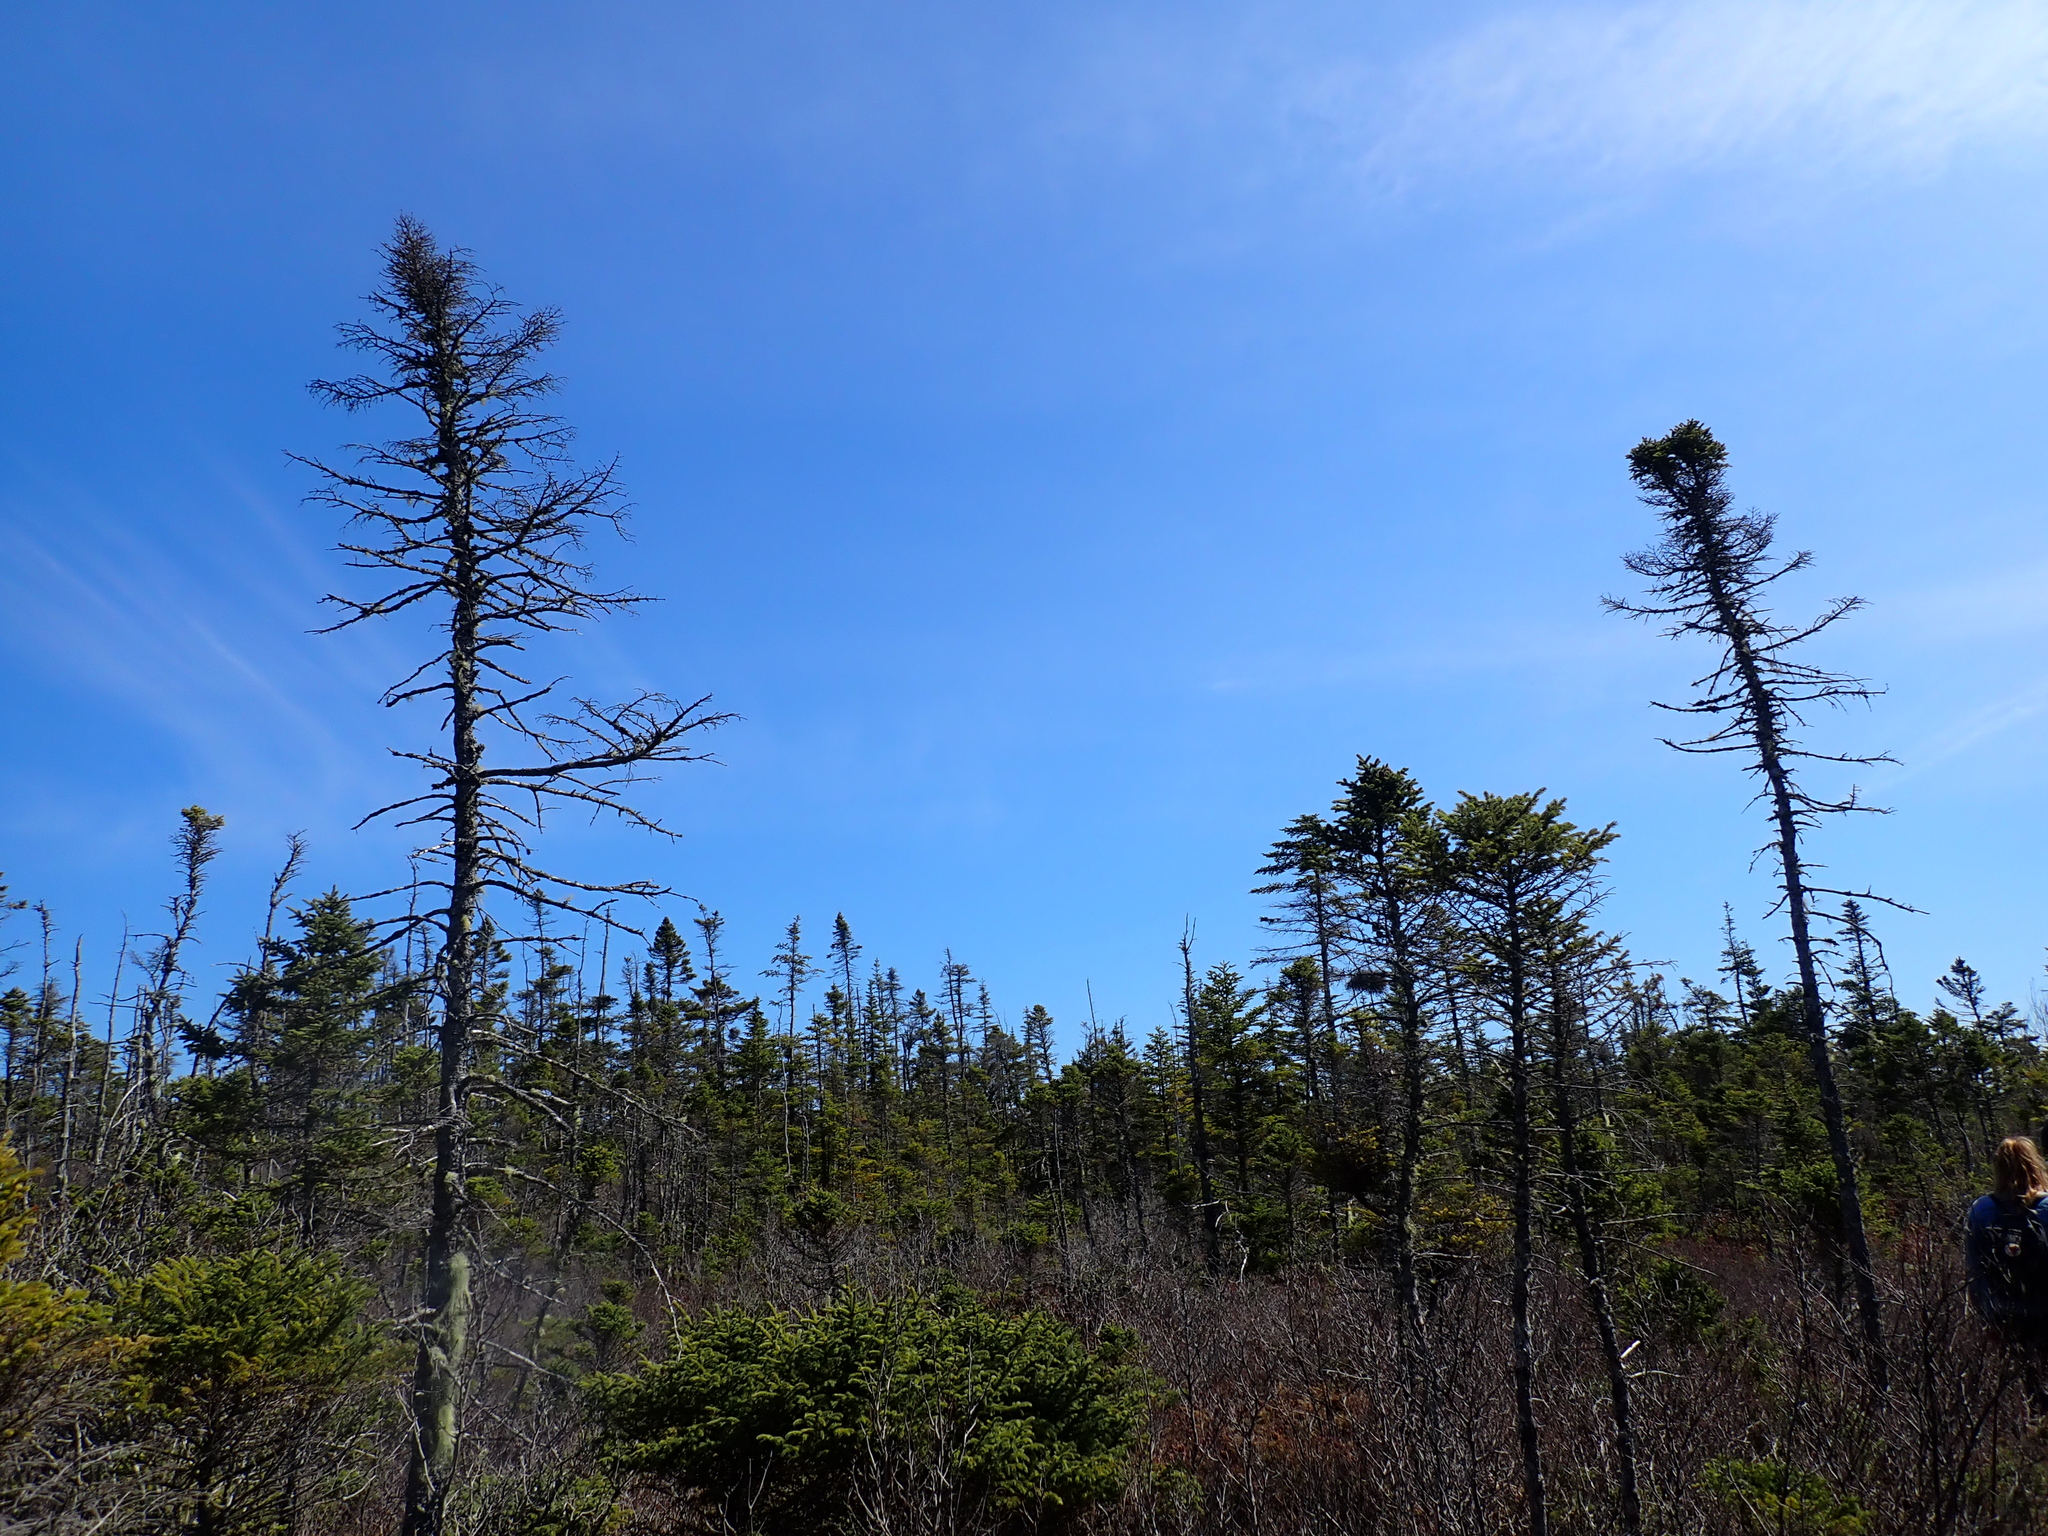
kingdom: Plantae
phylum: Tracheophyta
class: Pinopsida
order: Pinales
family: Pinaceae
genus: Picea
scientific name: Picea mariana
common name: Black spruce
